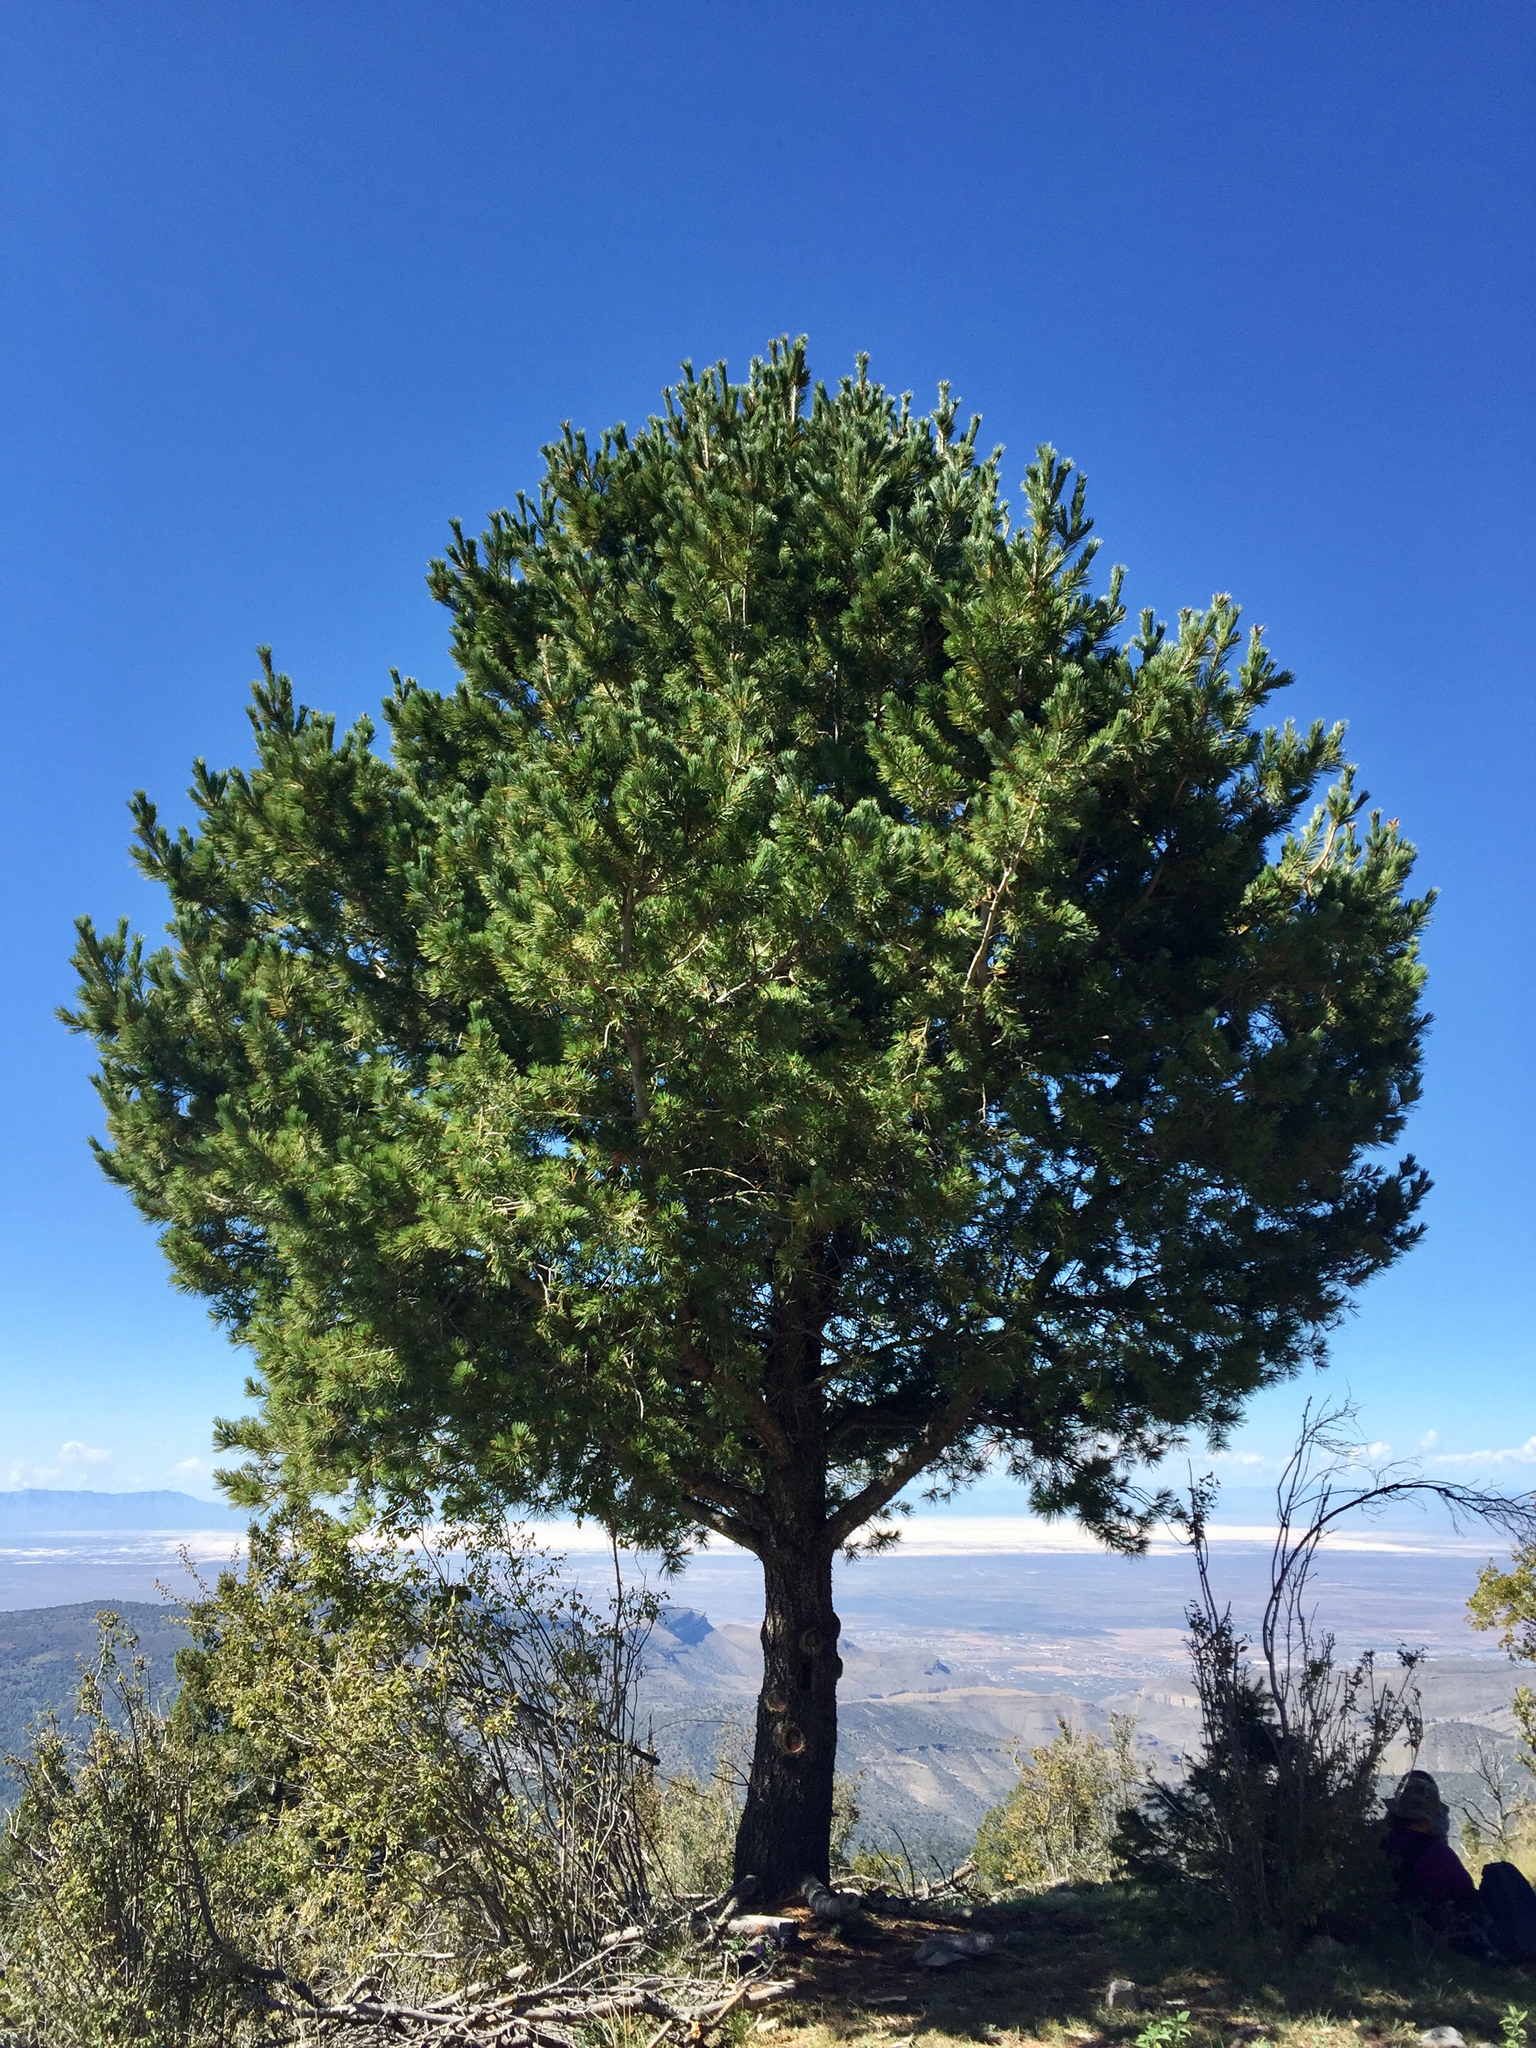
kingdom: Plantae
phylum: Tracheophyta
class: Pinopsida
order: Pinales
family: Pinaceae
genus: Pinus
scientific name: Pinus strobiformis
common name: Southwestern white pine
